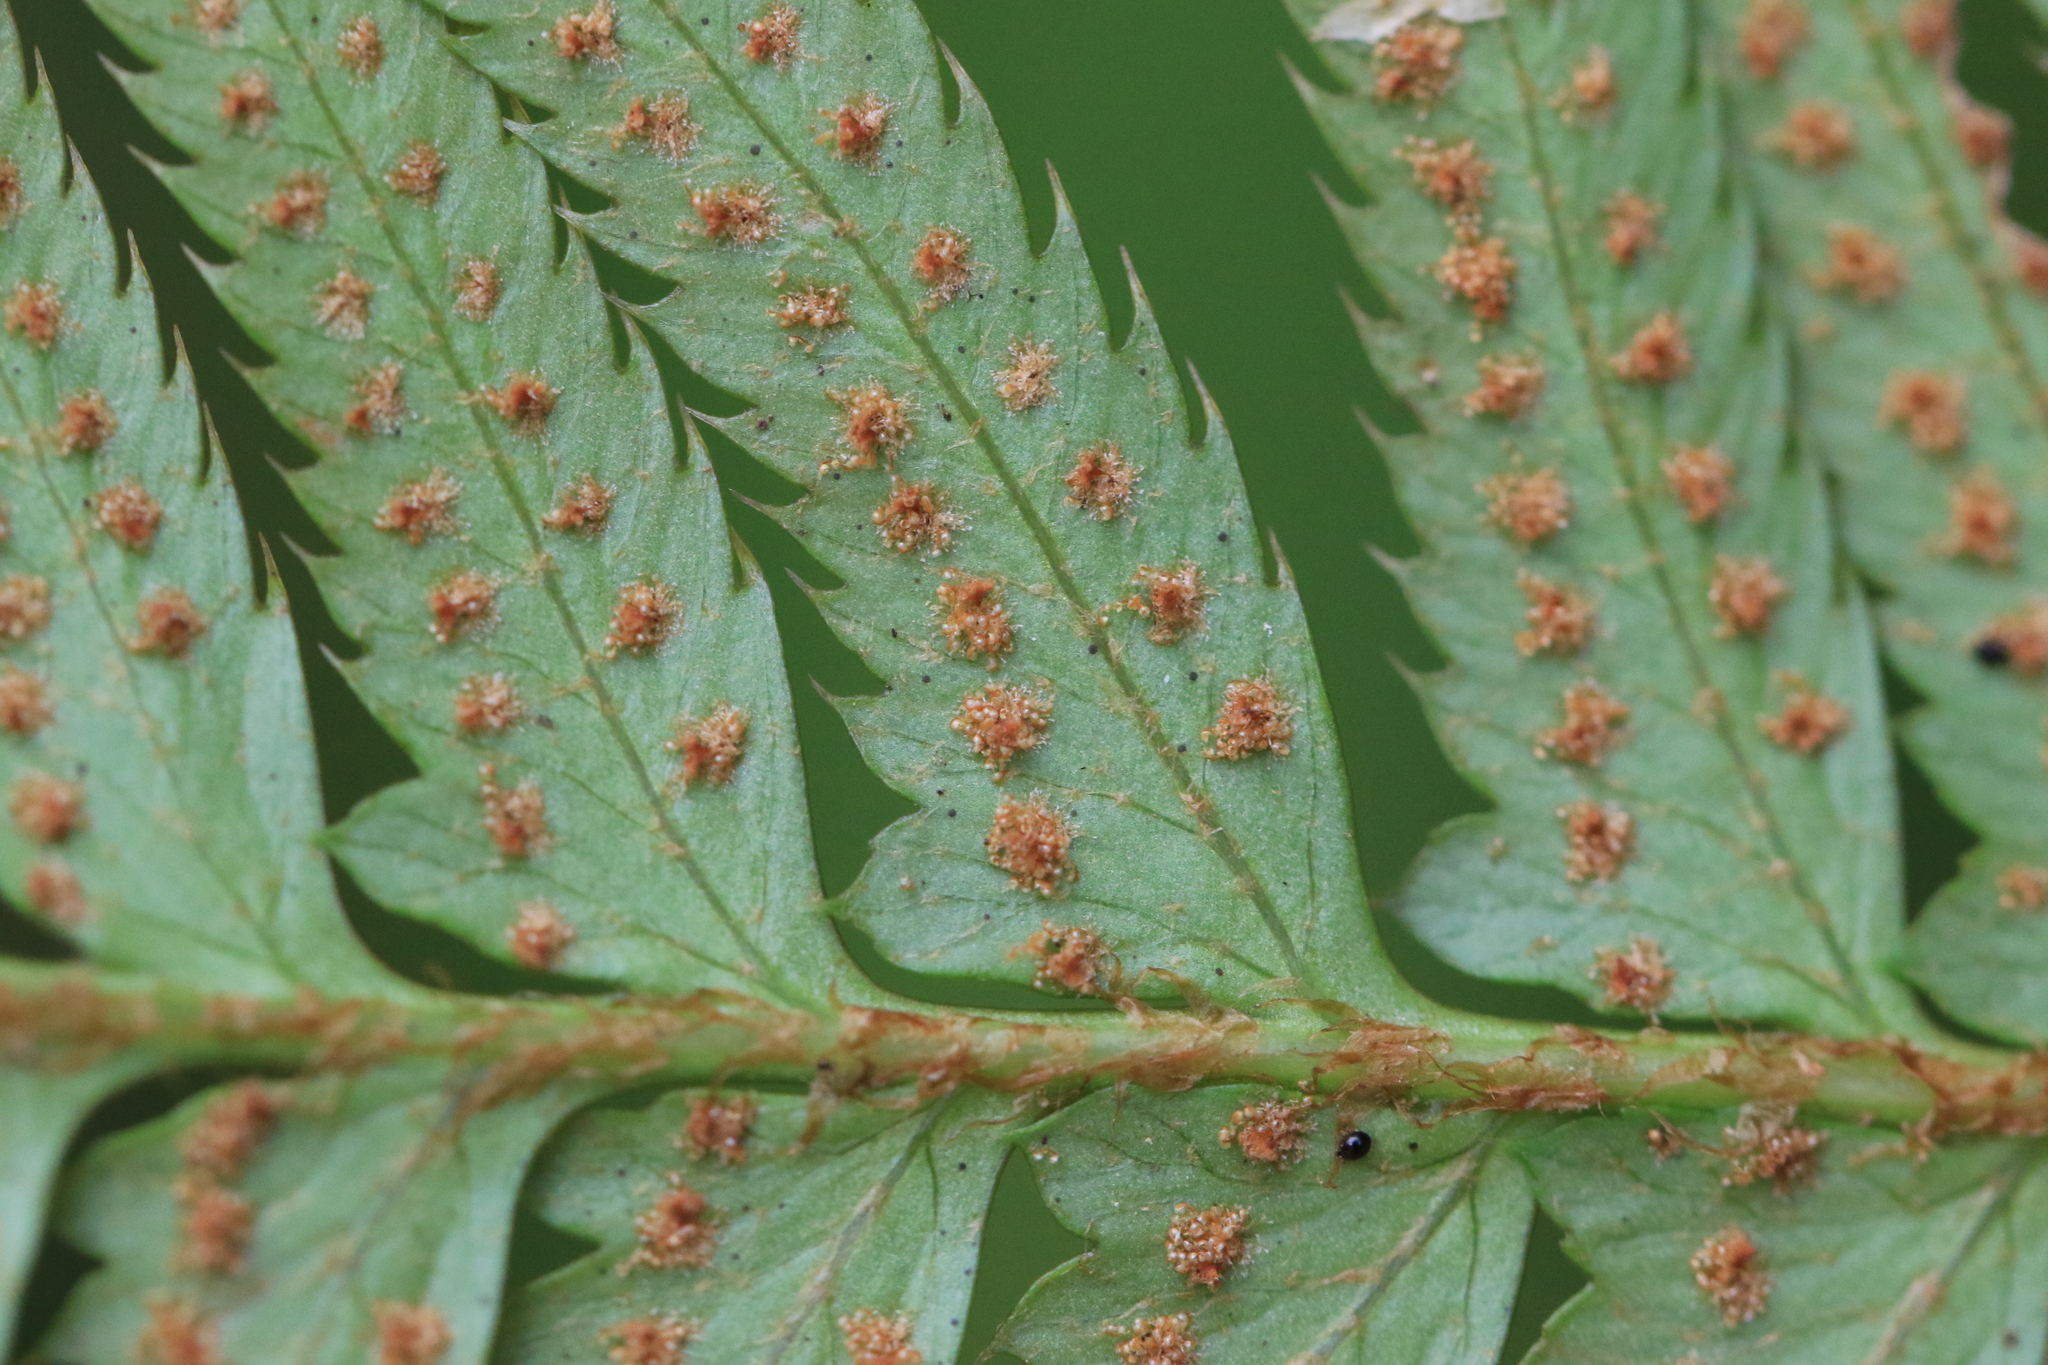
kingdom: Plantae
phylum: Tracheophyta
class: Polypodiopsida
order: Polypodiales
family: Dryopteridaceae
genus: Polystichum
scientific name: Polystichum munitum
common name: Western sword-fern
